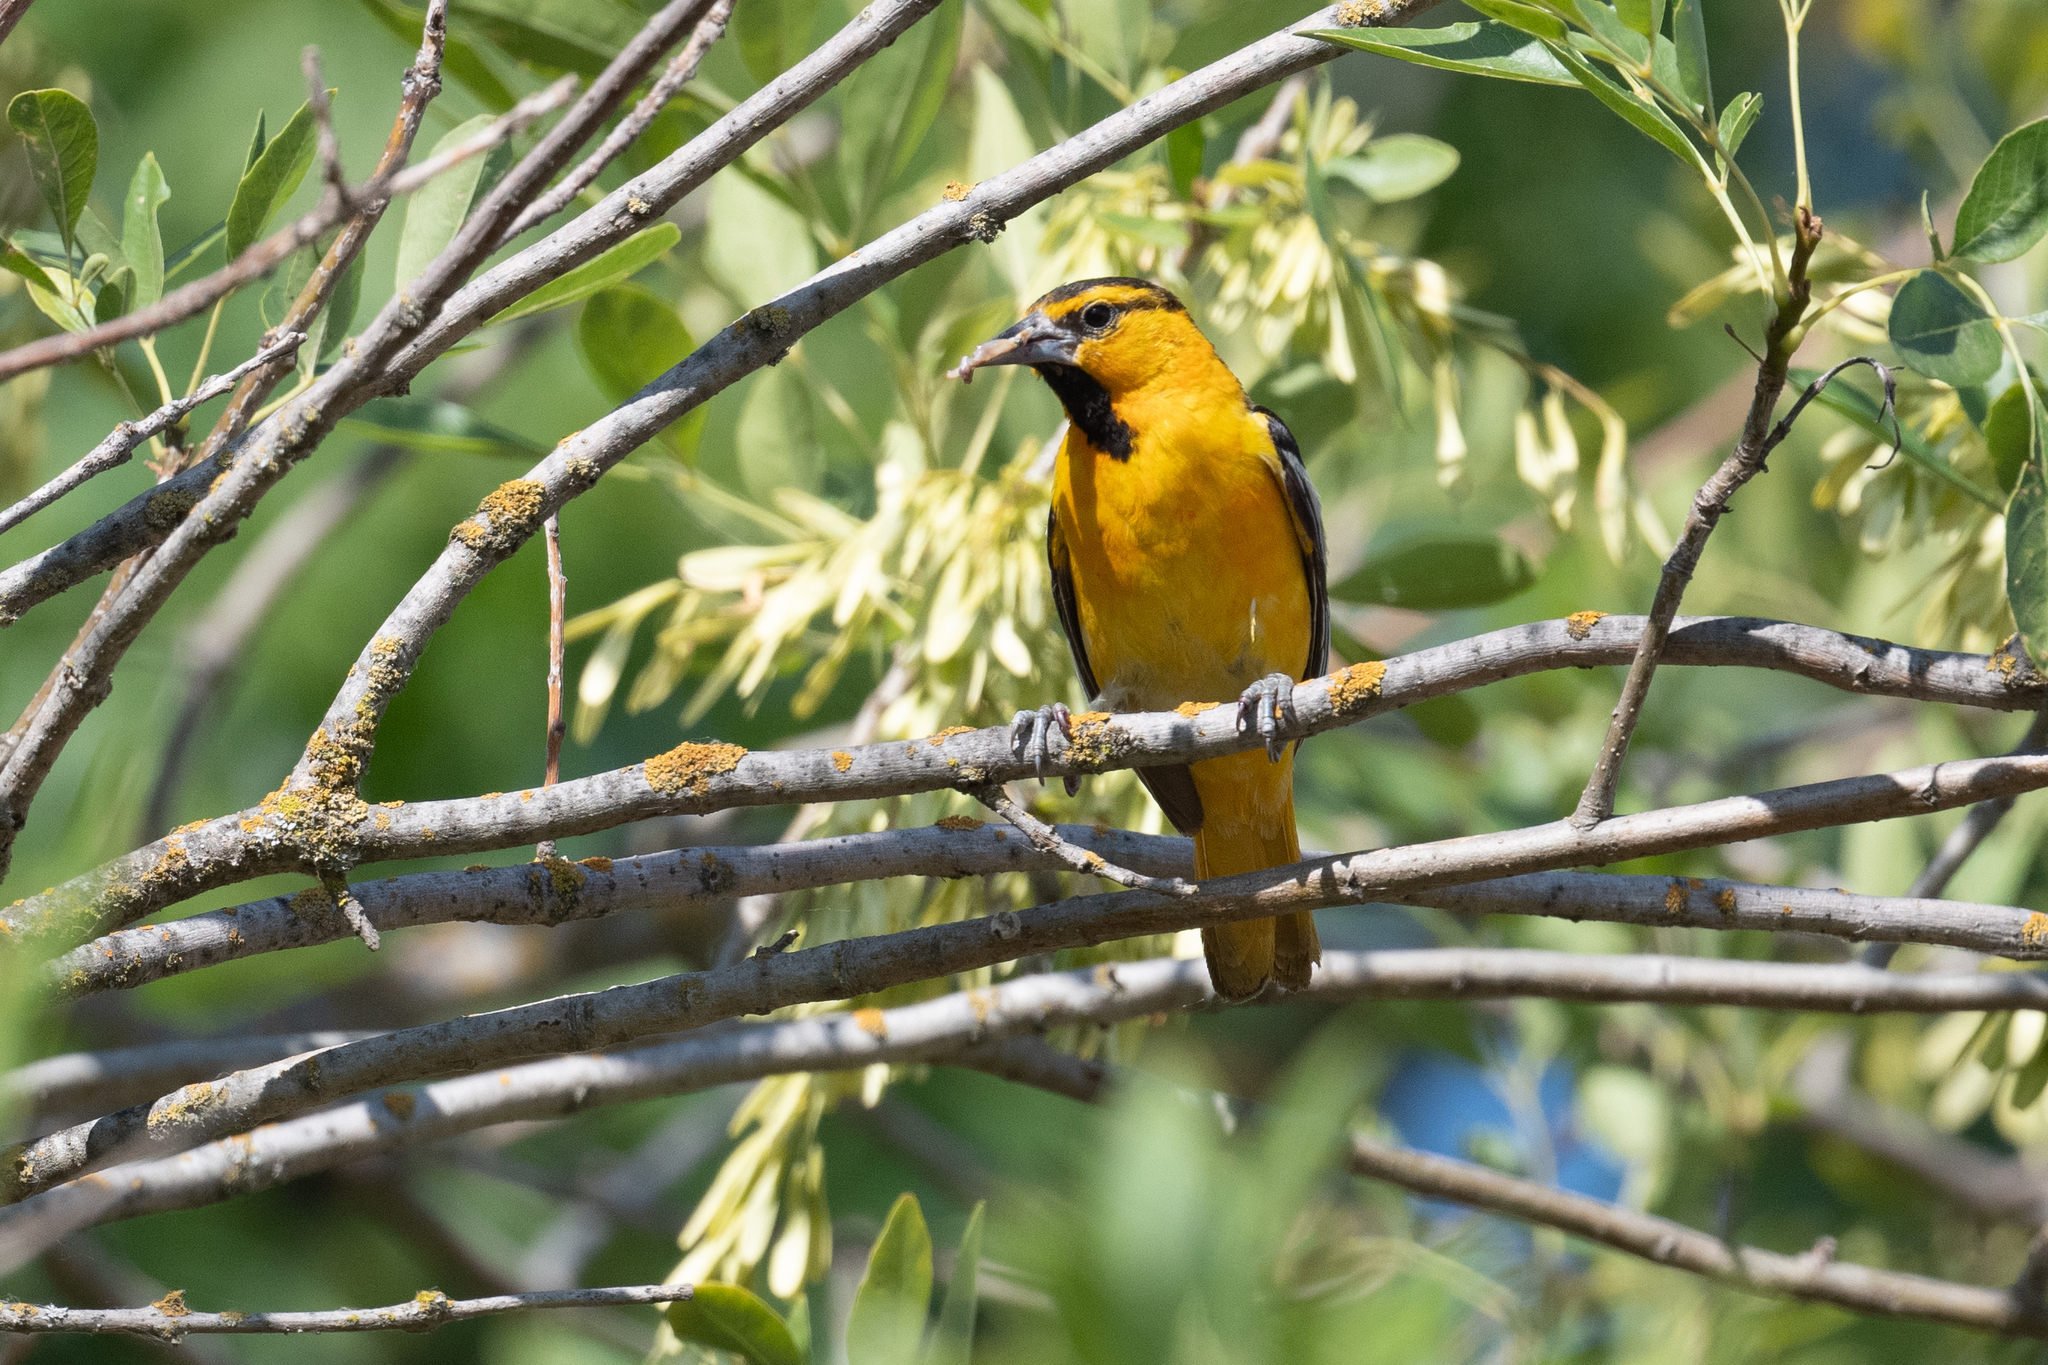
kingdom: Animalia
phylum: Chordata
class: Aves
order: Passeriformes
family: Icteridae
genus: Icterus
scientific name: Icterus bullockii
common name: Bullock's oriole
